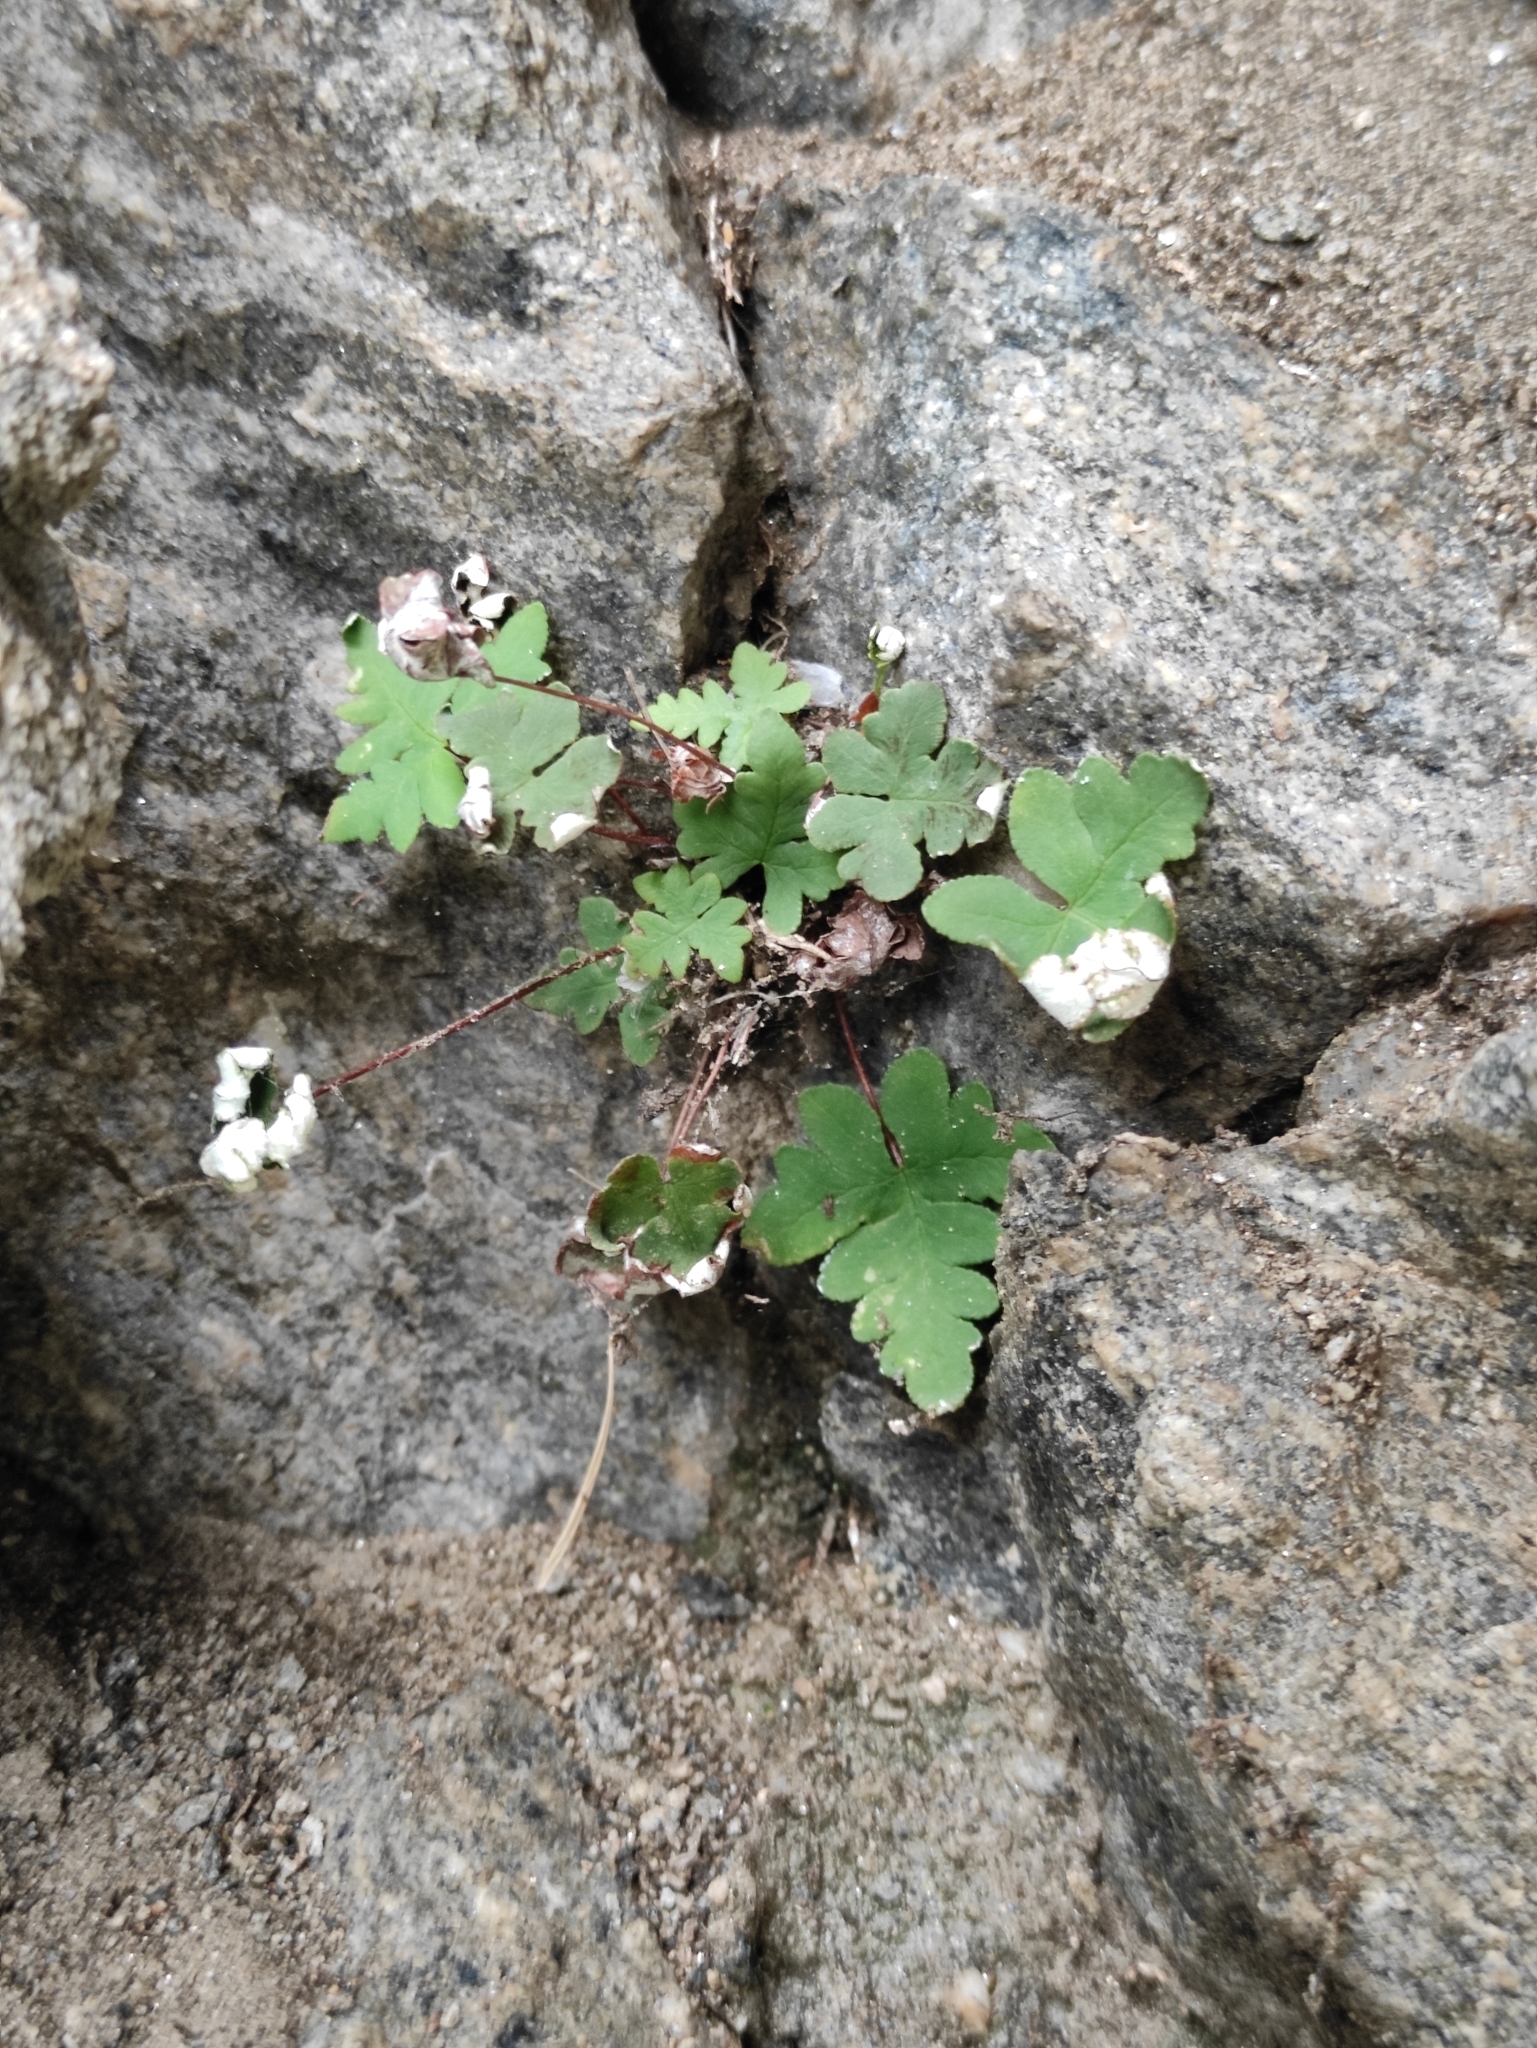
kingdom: Plantae
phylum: Tracheophyta
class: Polypodiopsida
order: Polypodiales
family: Pteridaceae
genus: Aleuritopteris
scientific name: Aleuritopteris argentea
